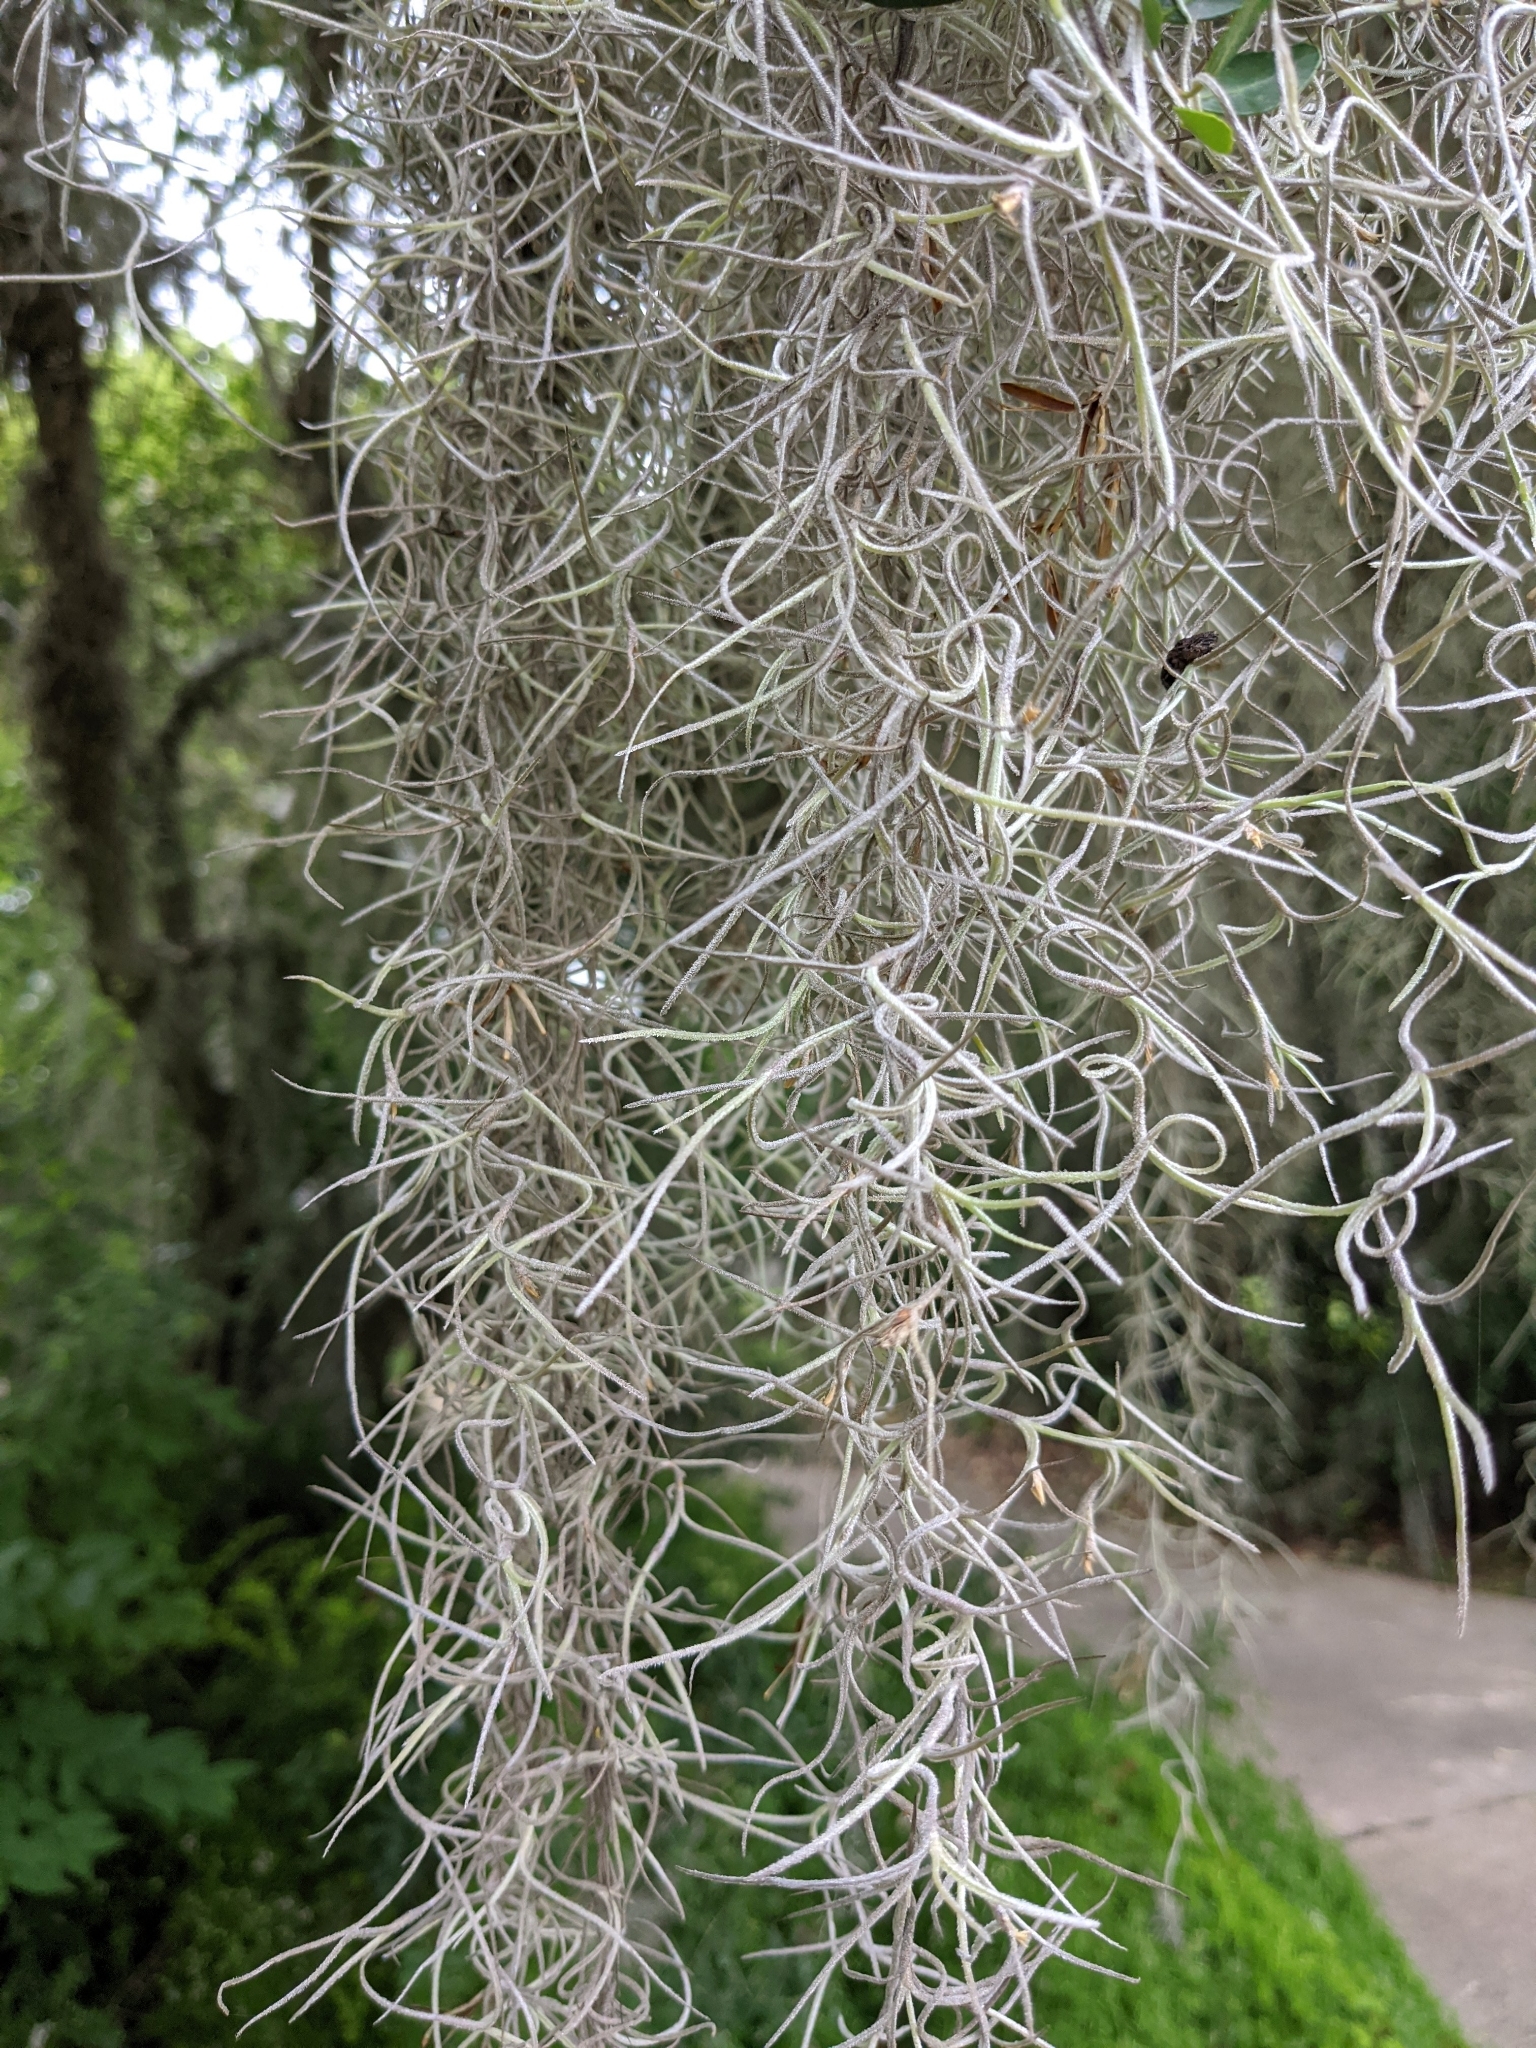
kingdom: Plantae
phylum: Tracheophyta
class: Liliopsida
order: Poales
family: Bromeliaceae
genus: Tillandsia
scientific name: Tillandsia usneoides
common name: Spanish moss
